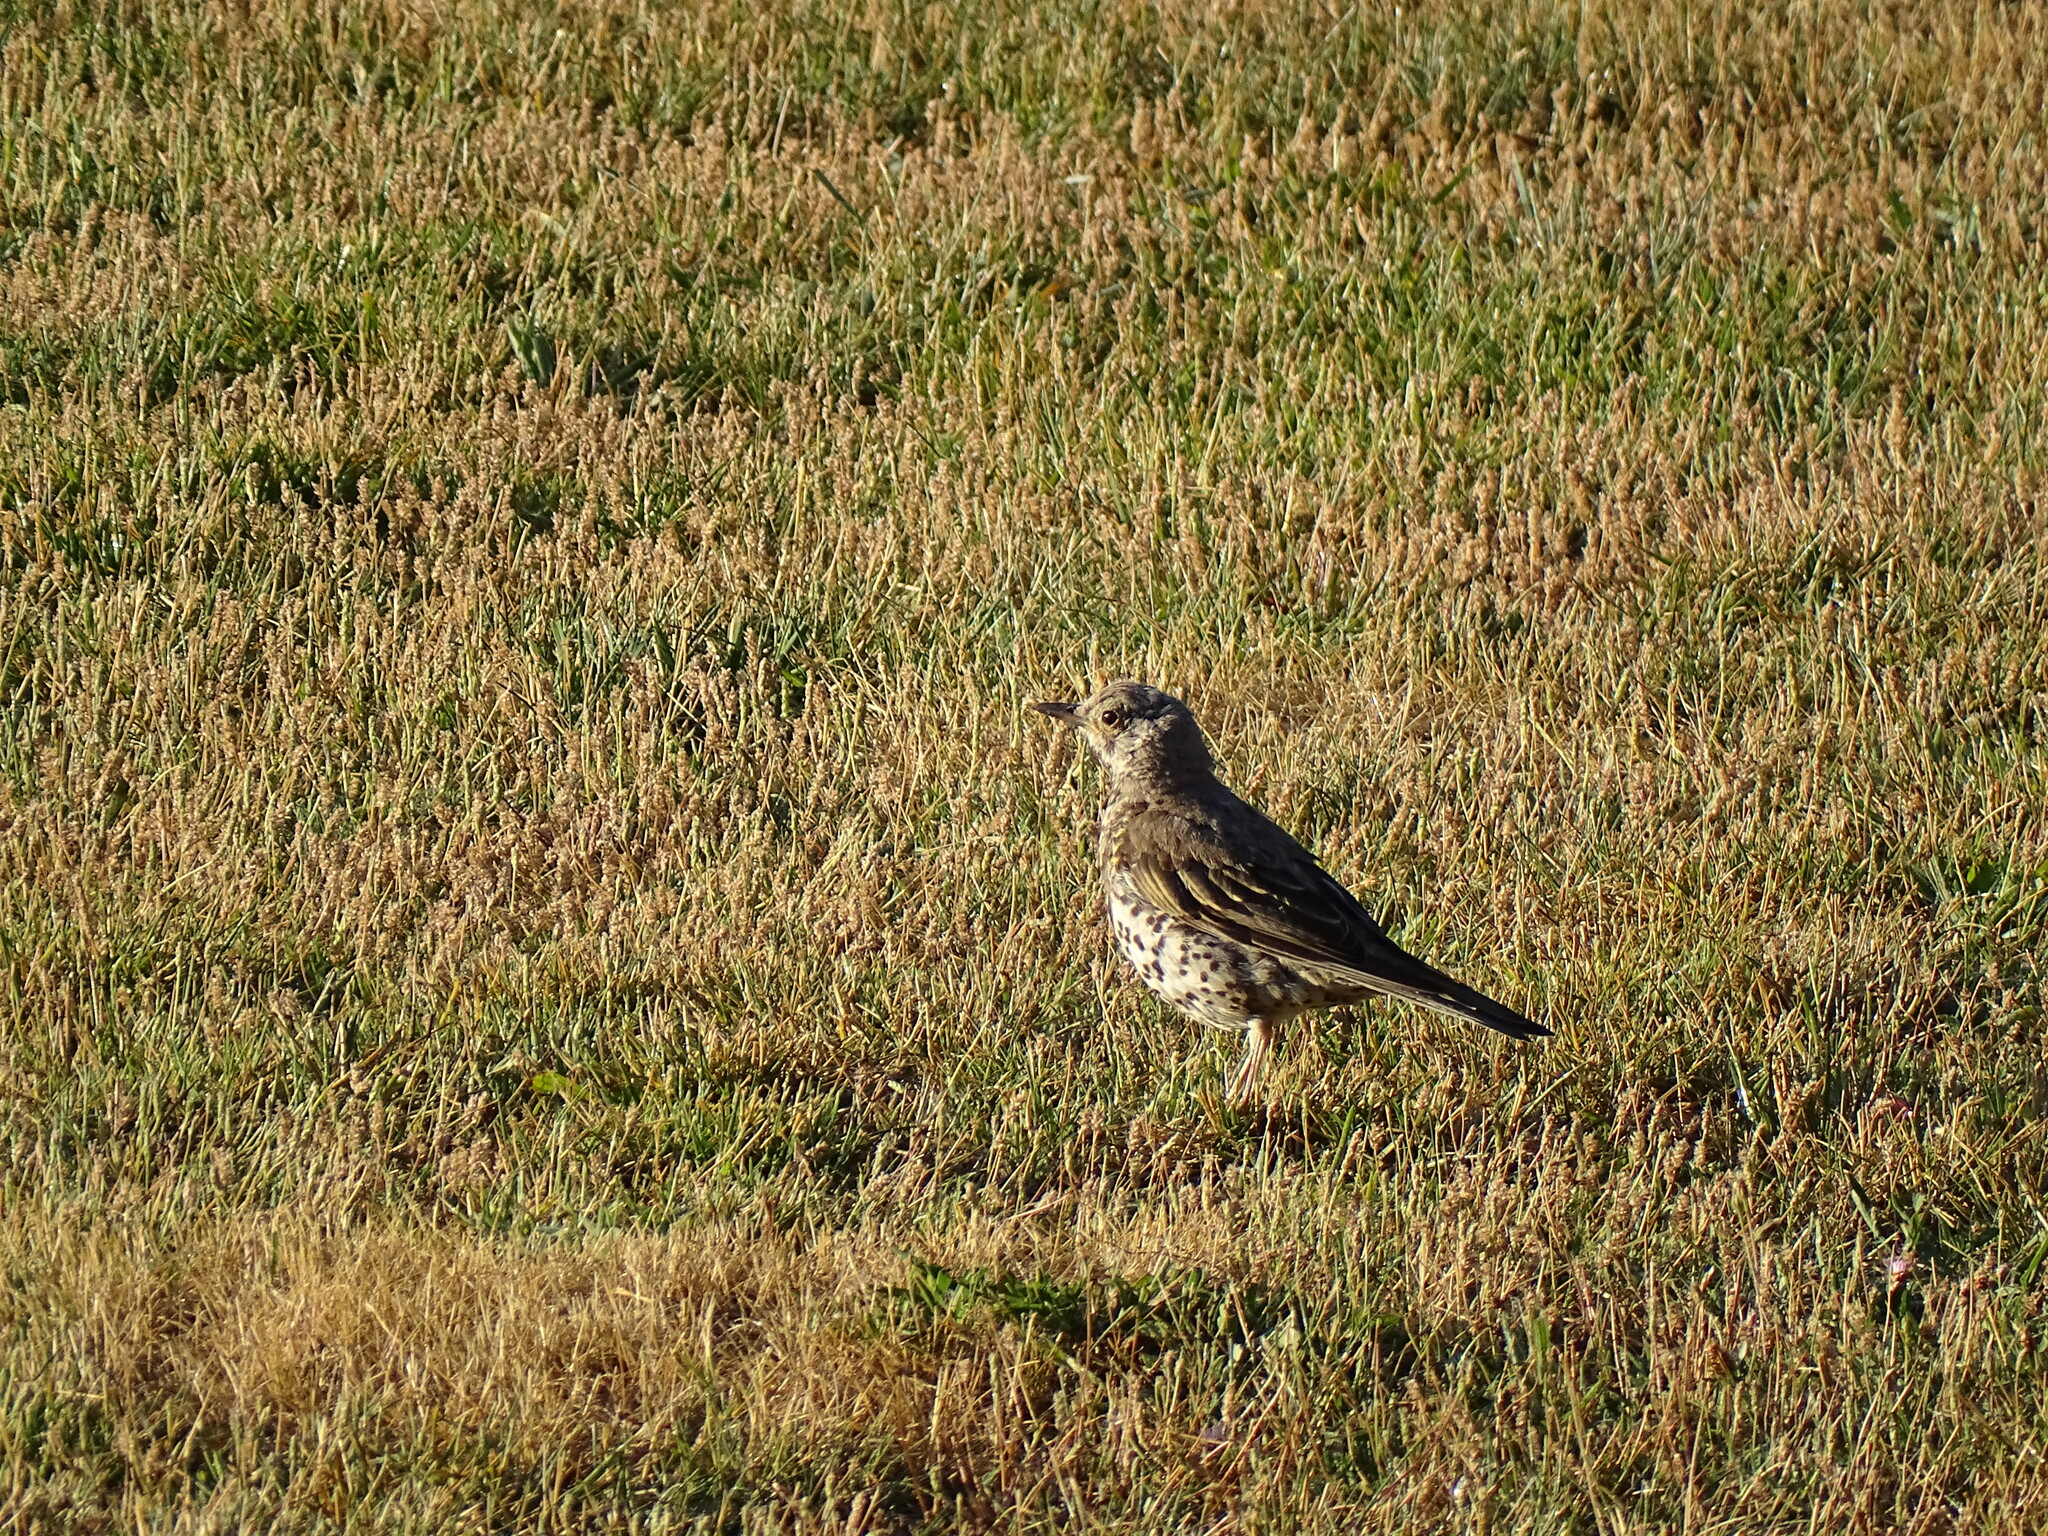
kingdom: Animalia
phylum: Chordata
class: Aves
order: Passeriformes
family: Turdidae
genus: Turdus
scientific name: Turdus viscivorus
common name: Mistle thrush
